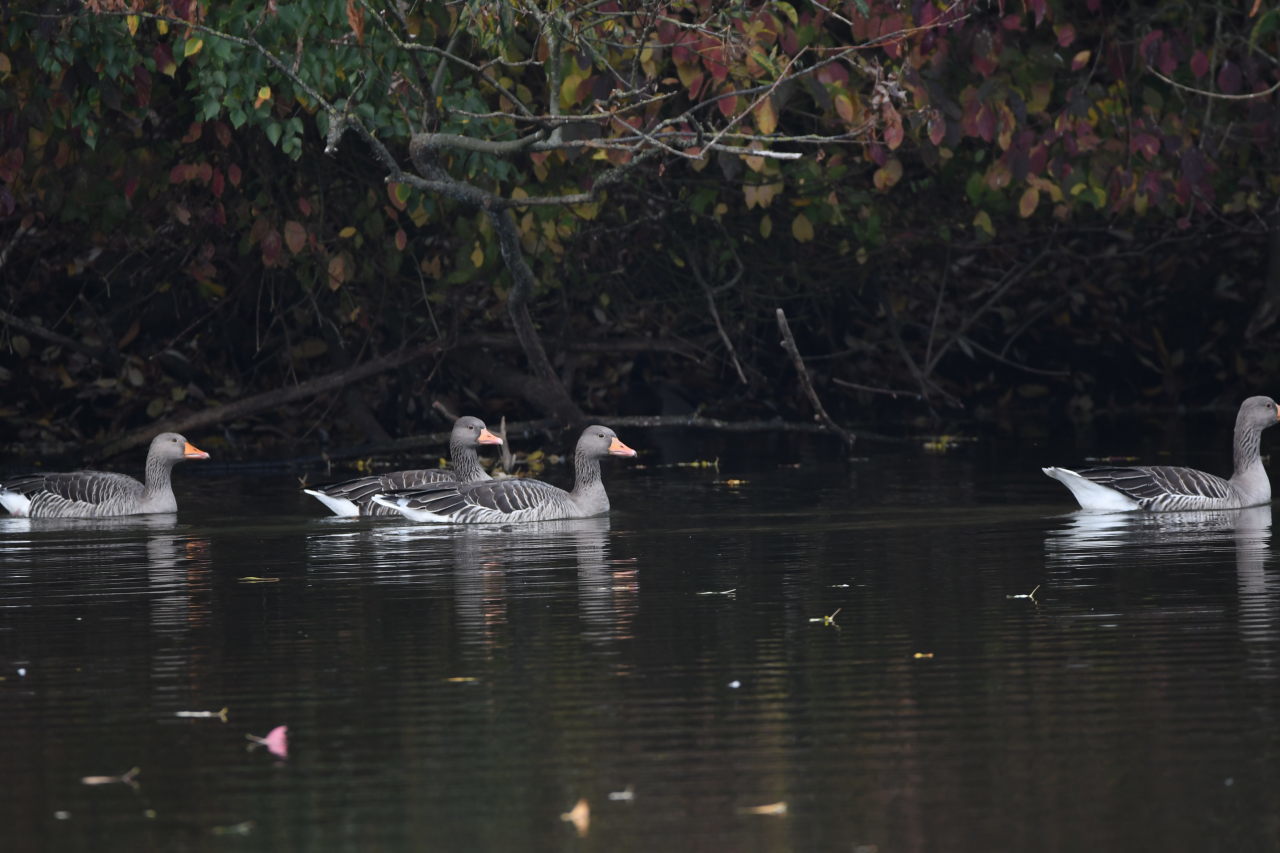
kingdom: Animalia
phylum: Chordata
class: Aves
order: Anseriformes
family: Anatidae
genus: Anser
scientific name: Anser anser
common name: Greylag goose
